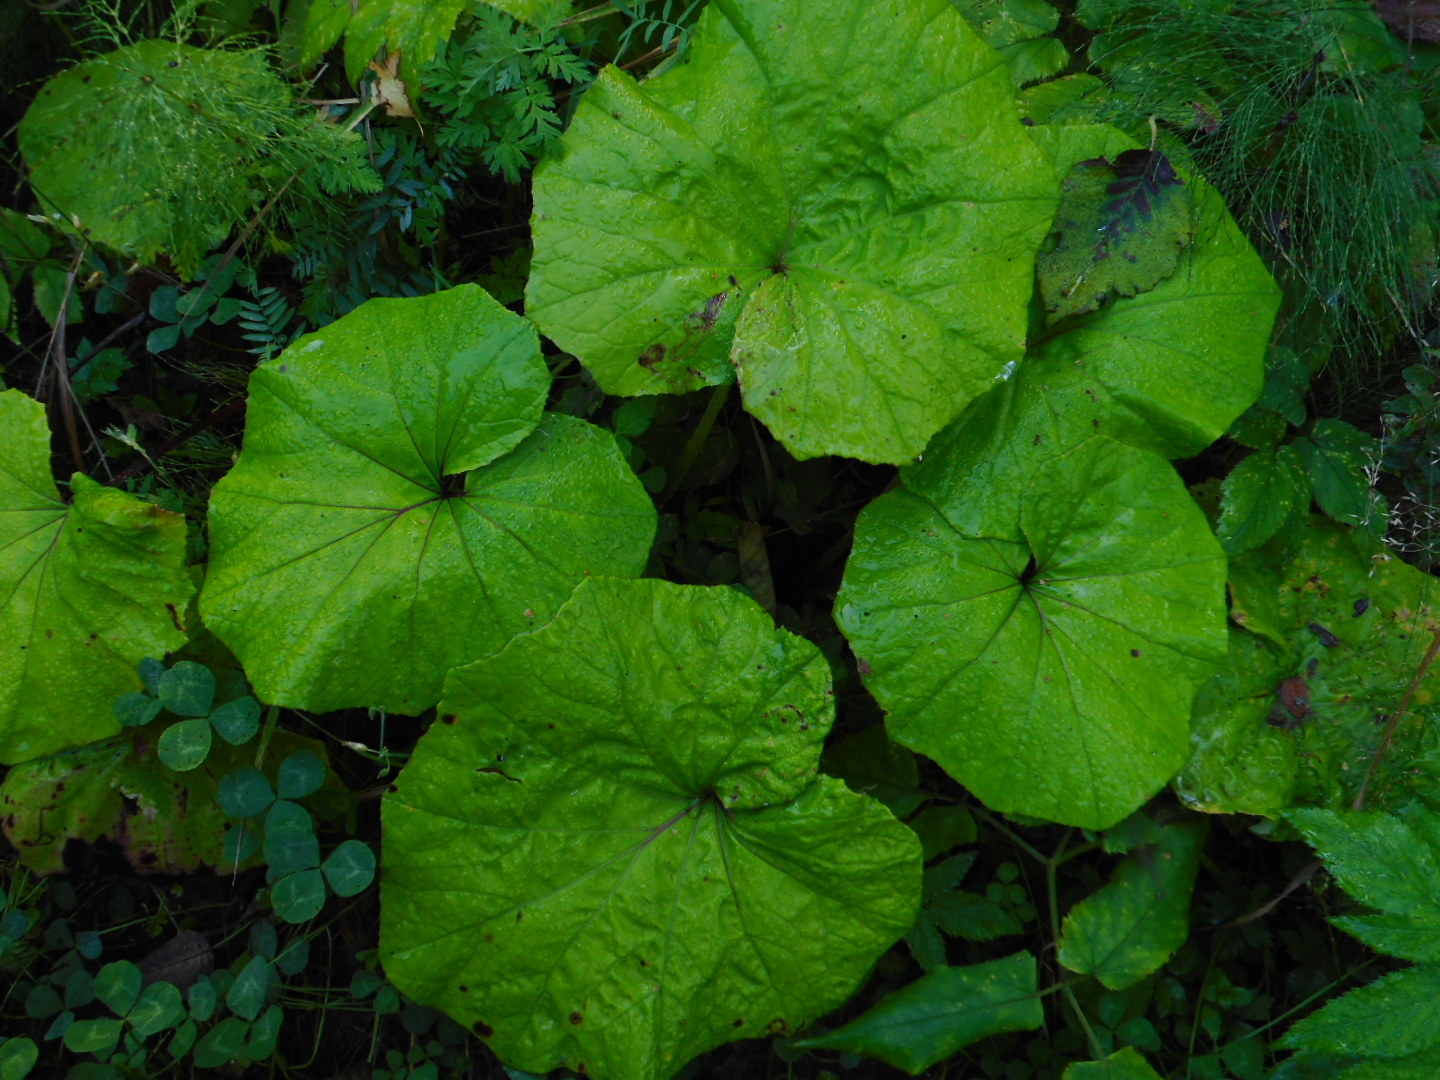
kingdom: Plantae
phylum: Tracheophyta
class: Magnoliopsida
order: Asterales
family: Asteraceae
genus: Tussilago
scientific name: Tussilago farfara
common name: Coltsfoot
